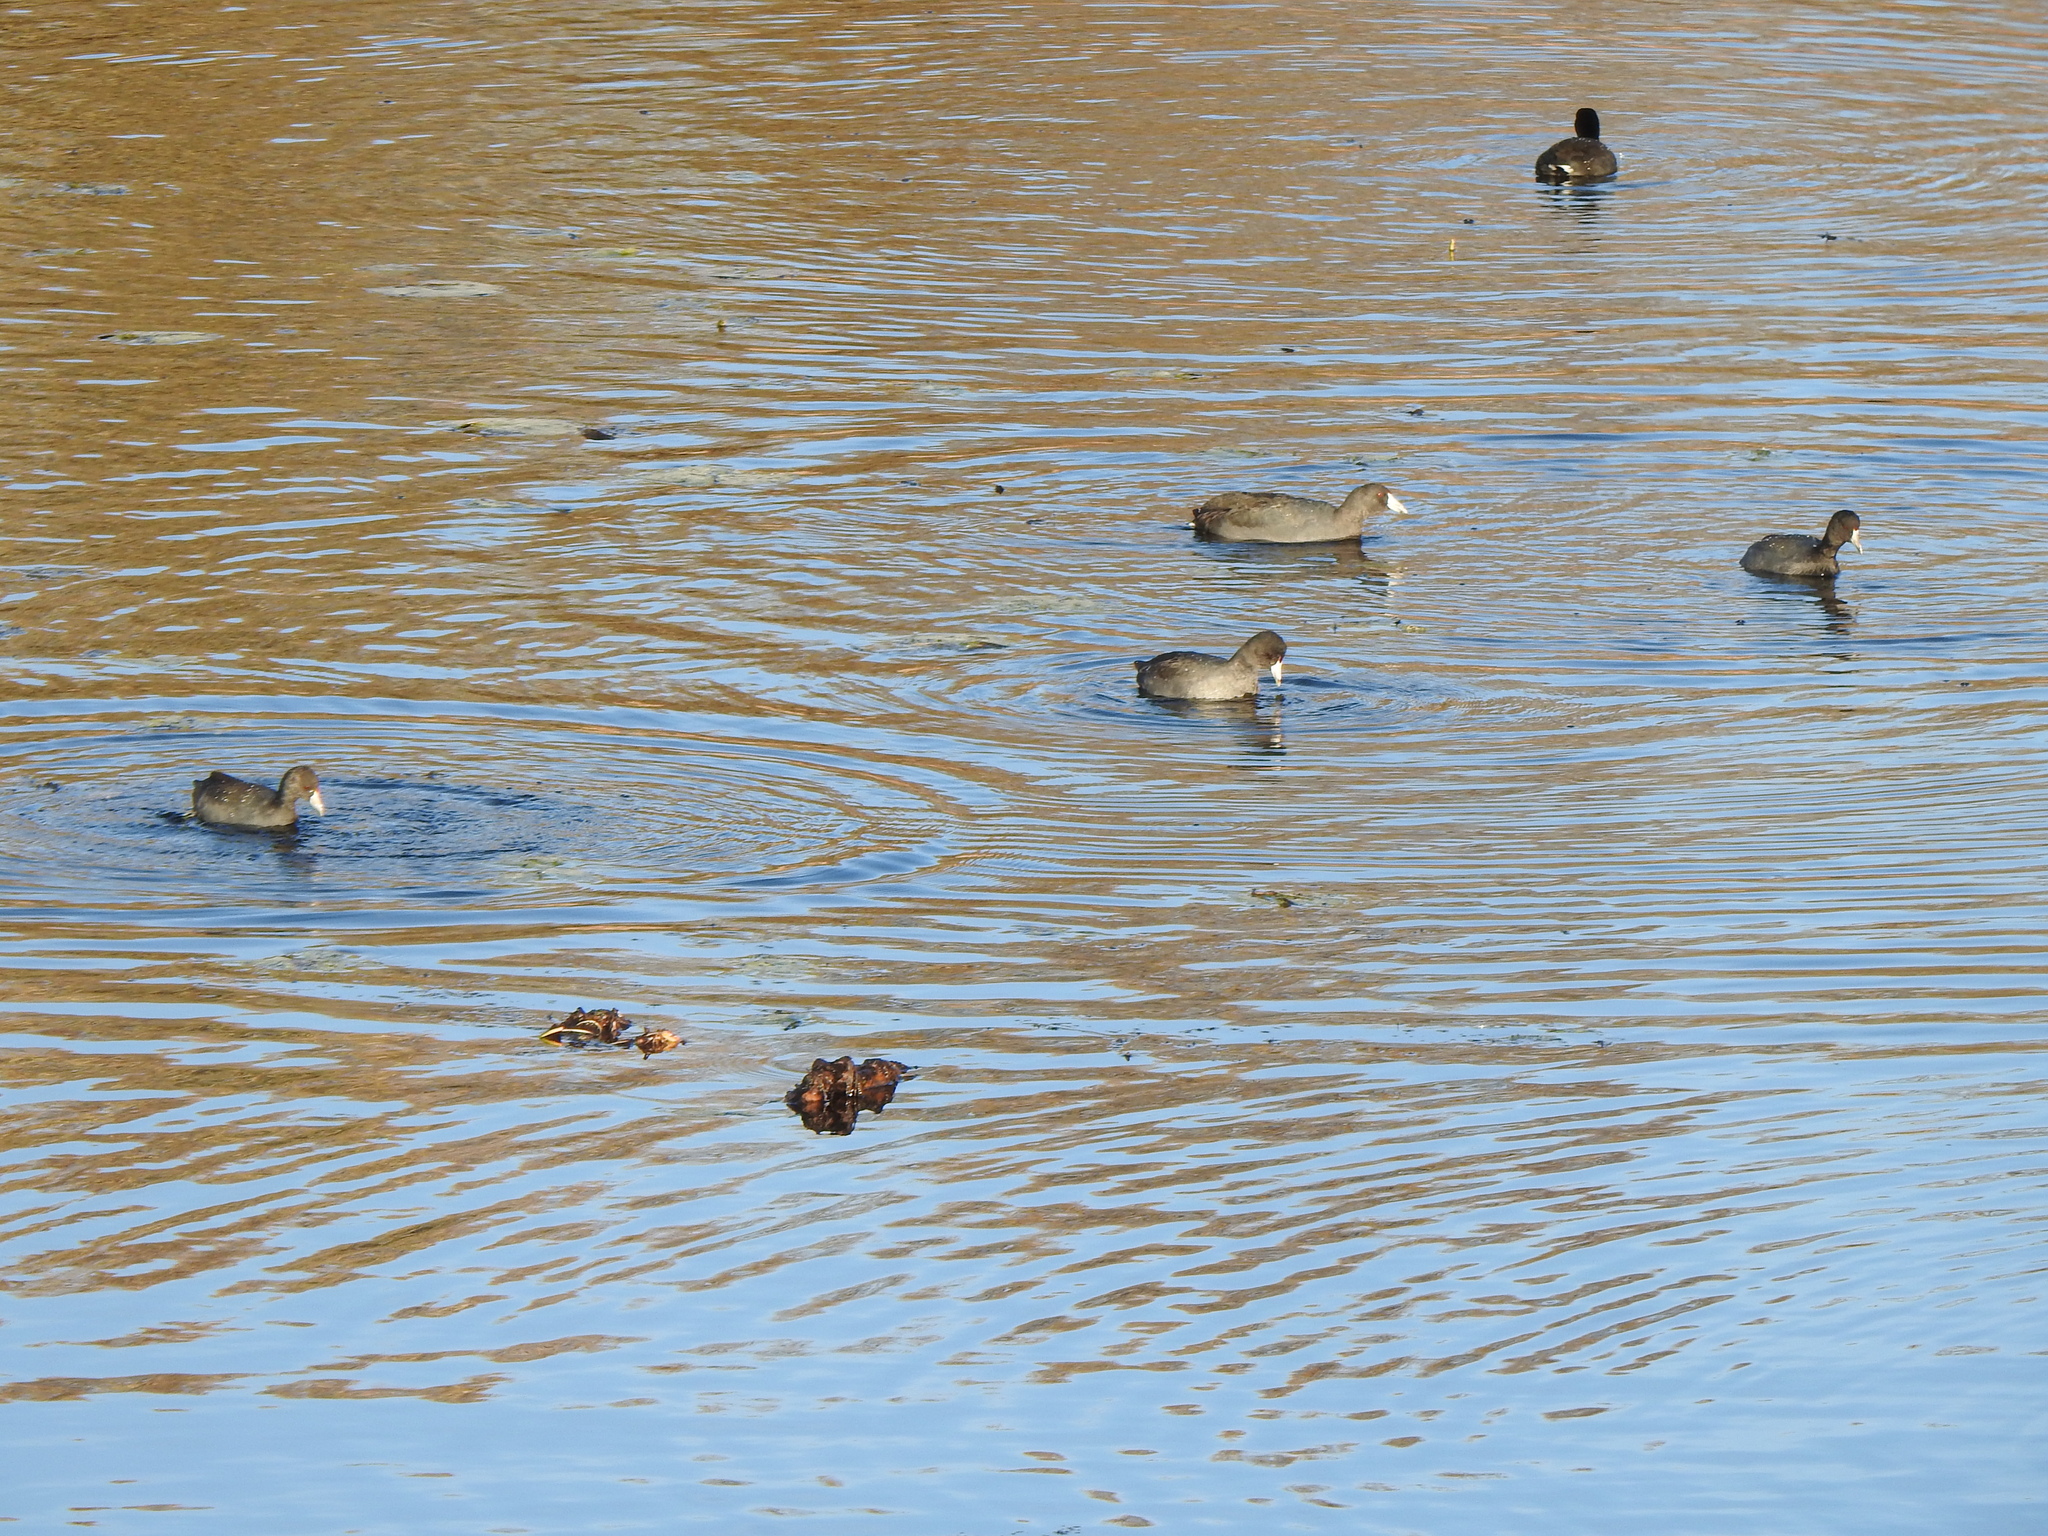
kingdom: Animalia
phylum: Chordata
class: Aves
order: Gruiformes
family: Rallidae
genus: Fulica
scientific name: Fulica americana
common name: American coot
